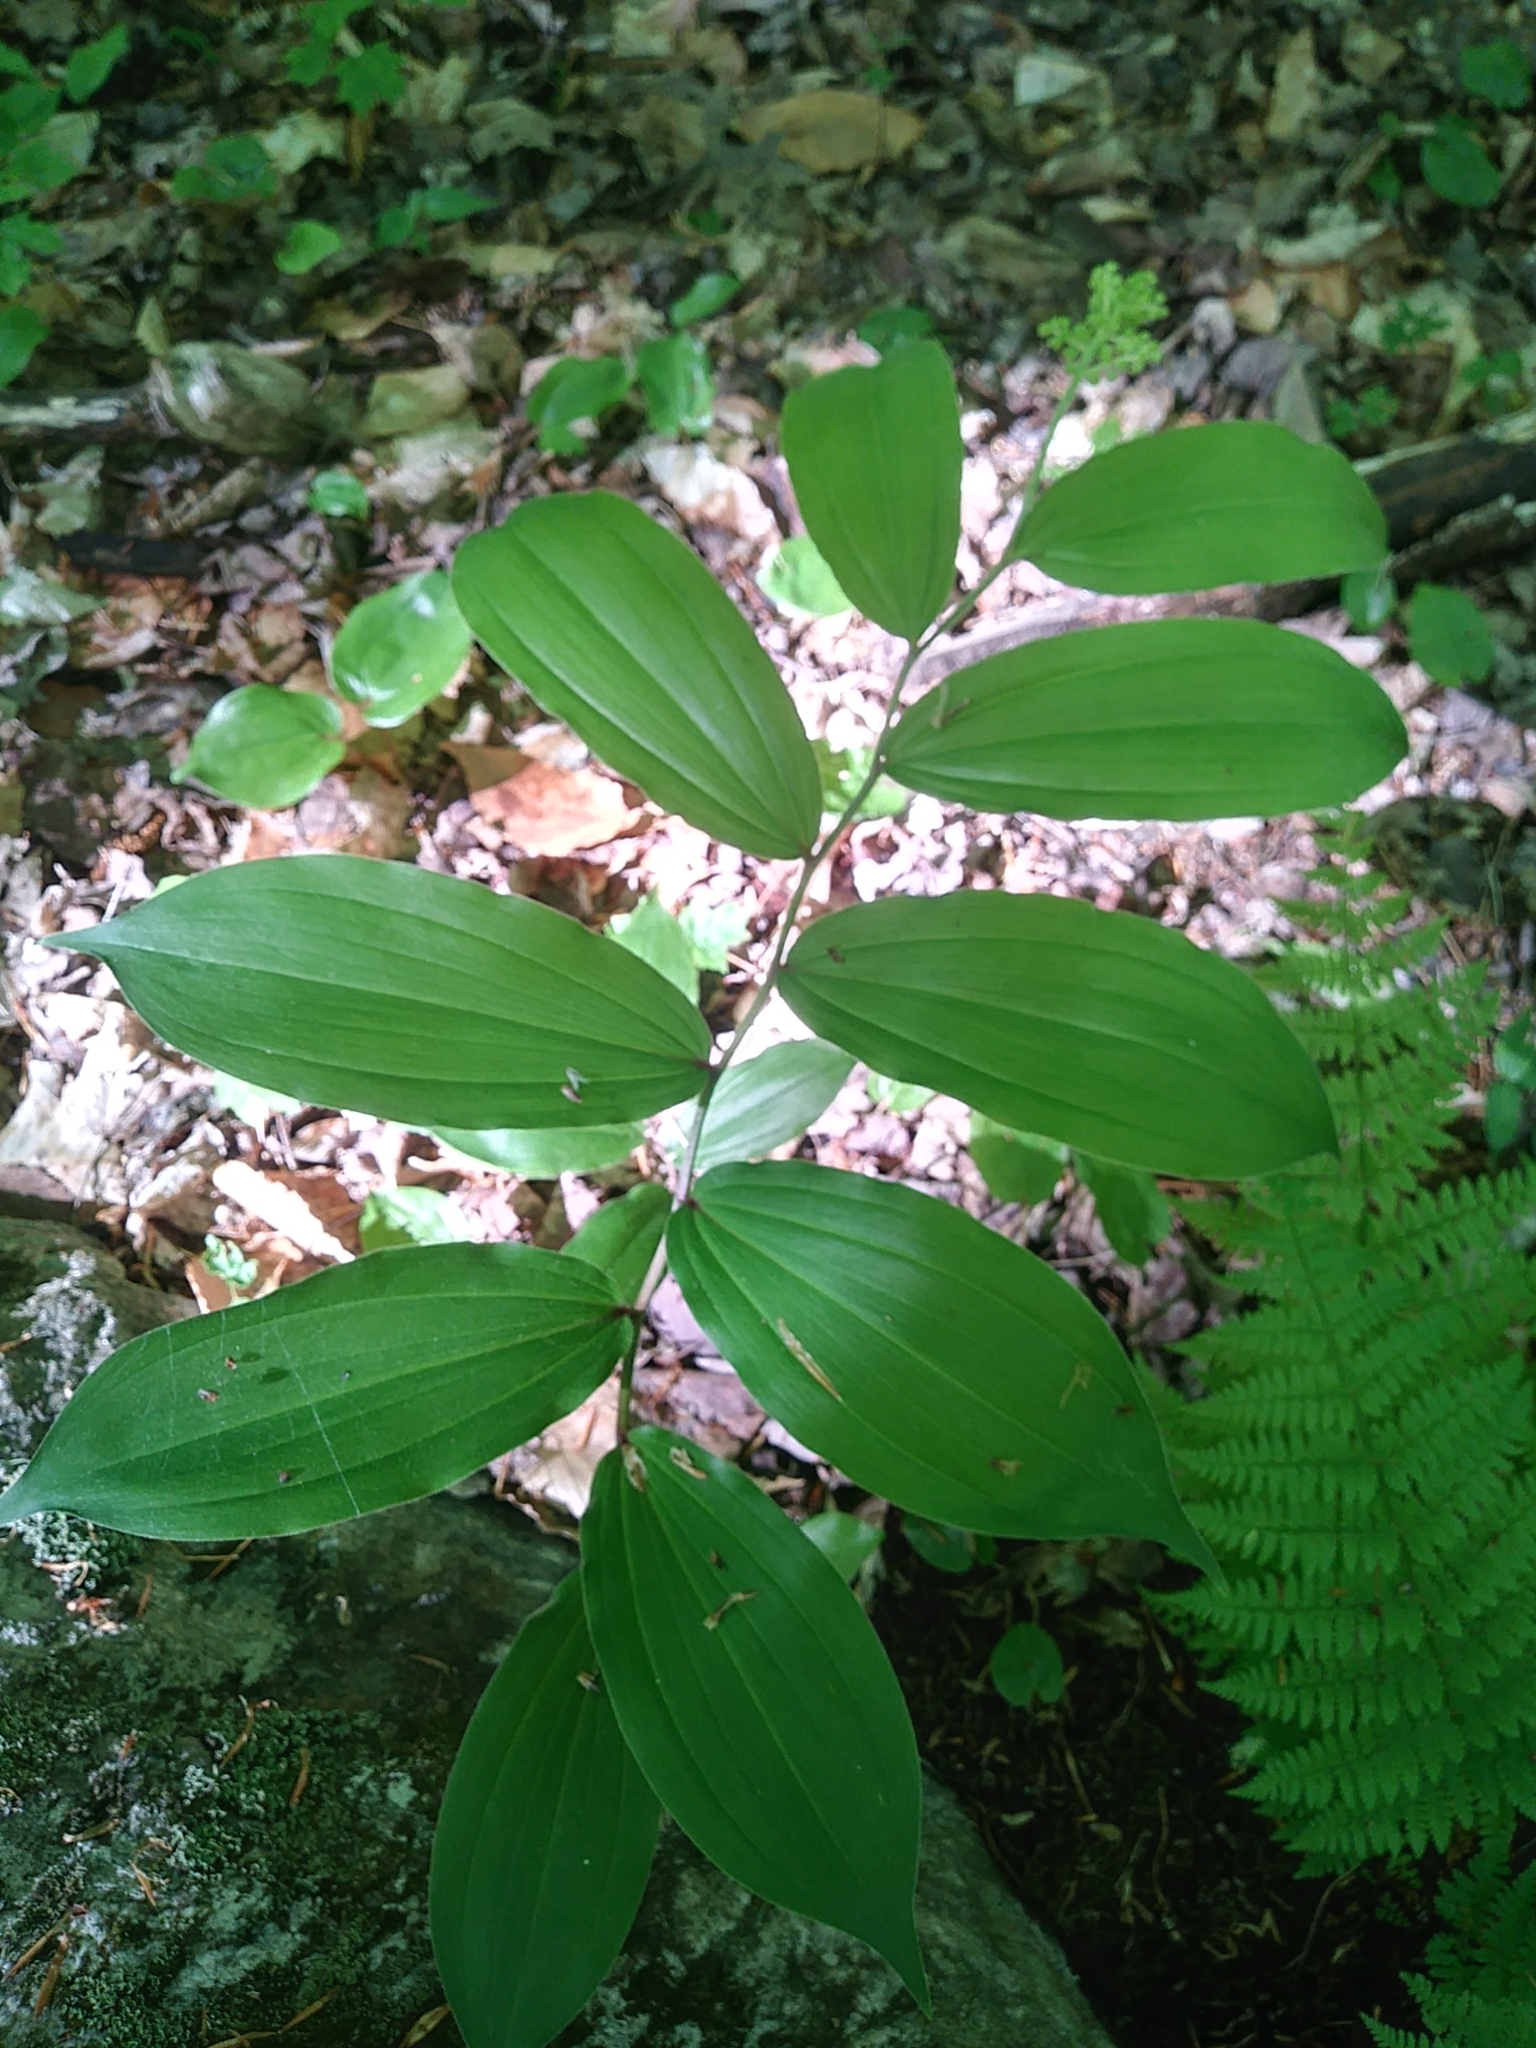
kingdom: Plantae
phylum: Tracheophyta
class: Liliopsida
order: Asparagales
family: Asparagaceae
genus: Maianthemum
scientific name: Maianthemum racemosum
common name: False spikenard
